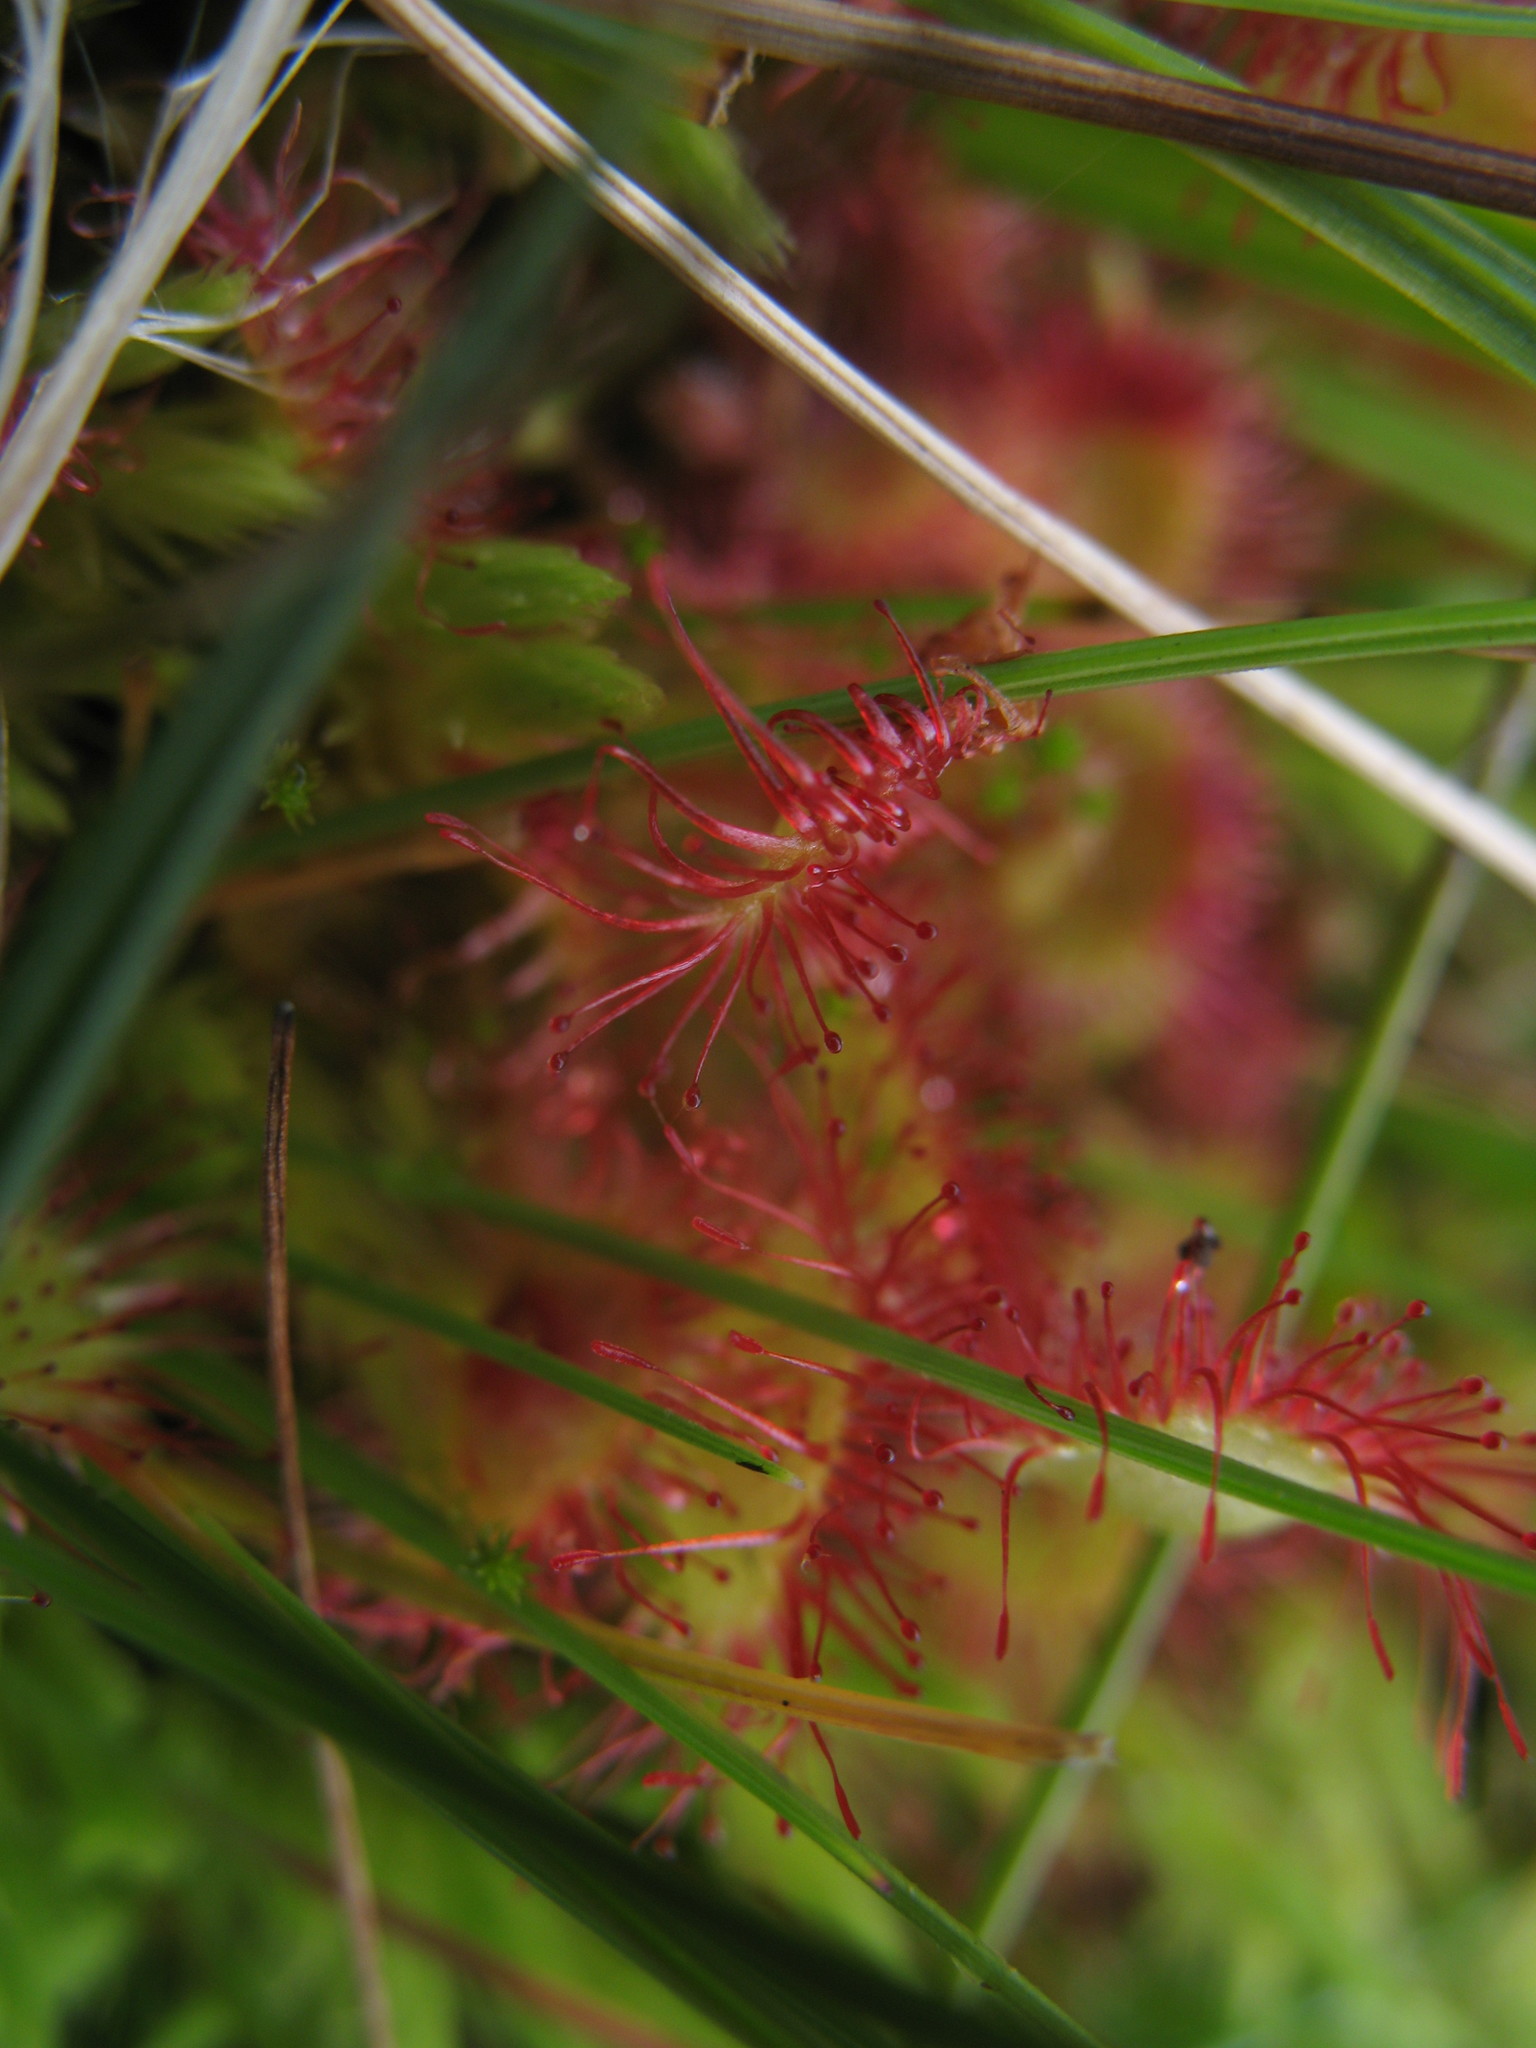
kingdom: Plantae
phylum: Tracheophyta
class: Magnoliopsida
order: Caryophyllales
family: Droseraceae
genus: Drosera
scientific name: Drosera rotundifolia
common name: Round-leaved sundew
